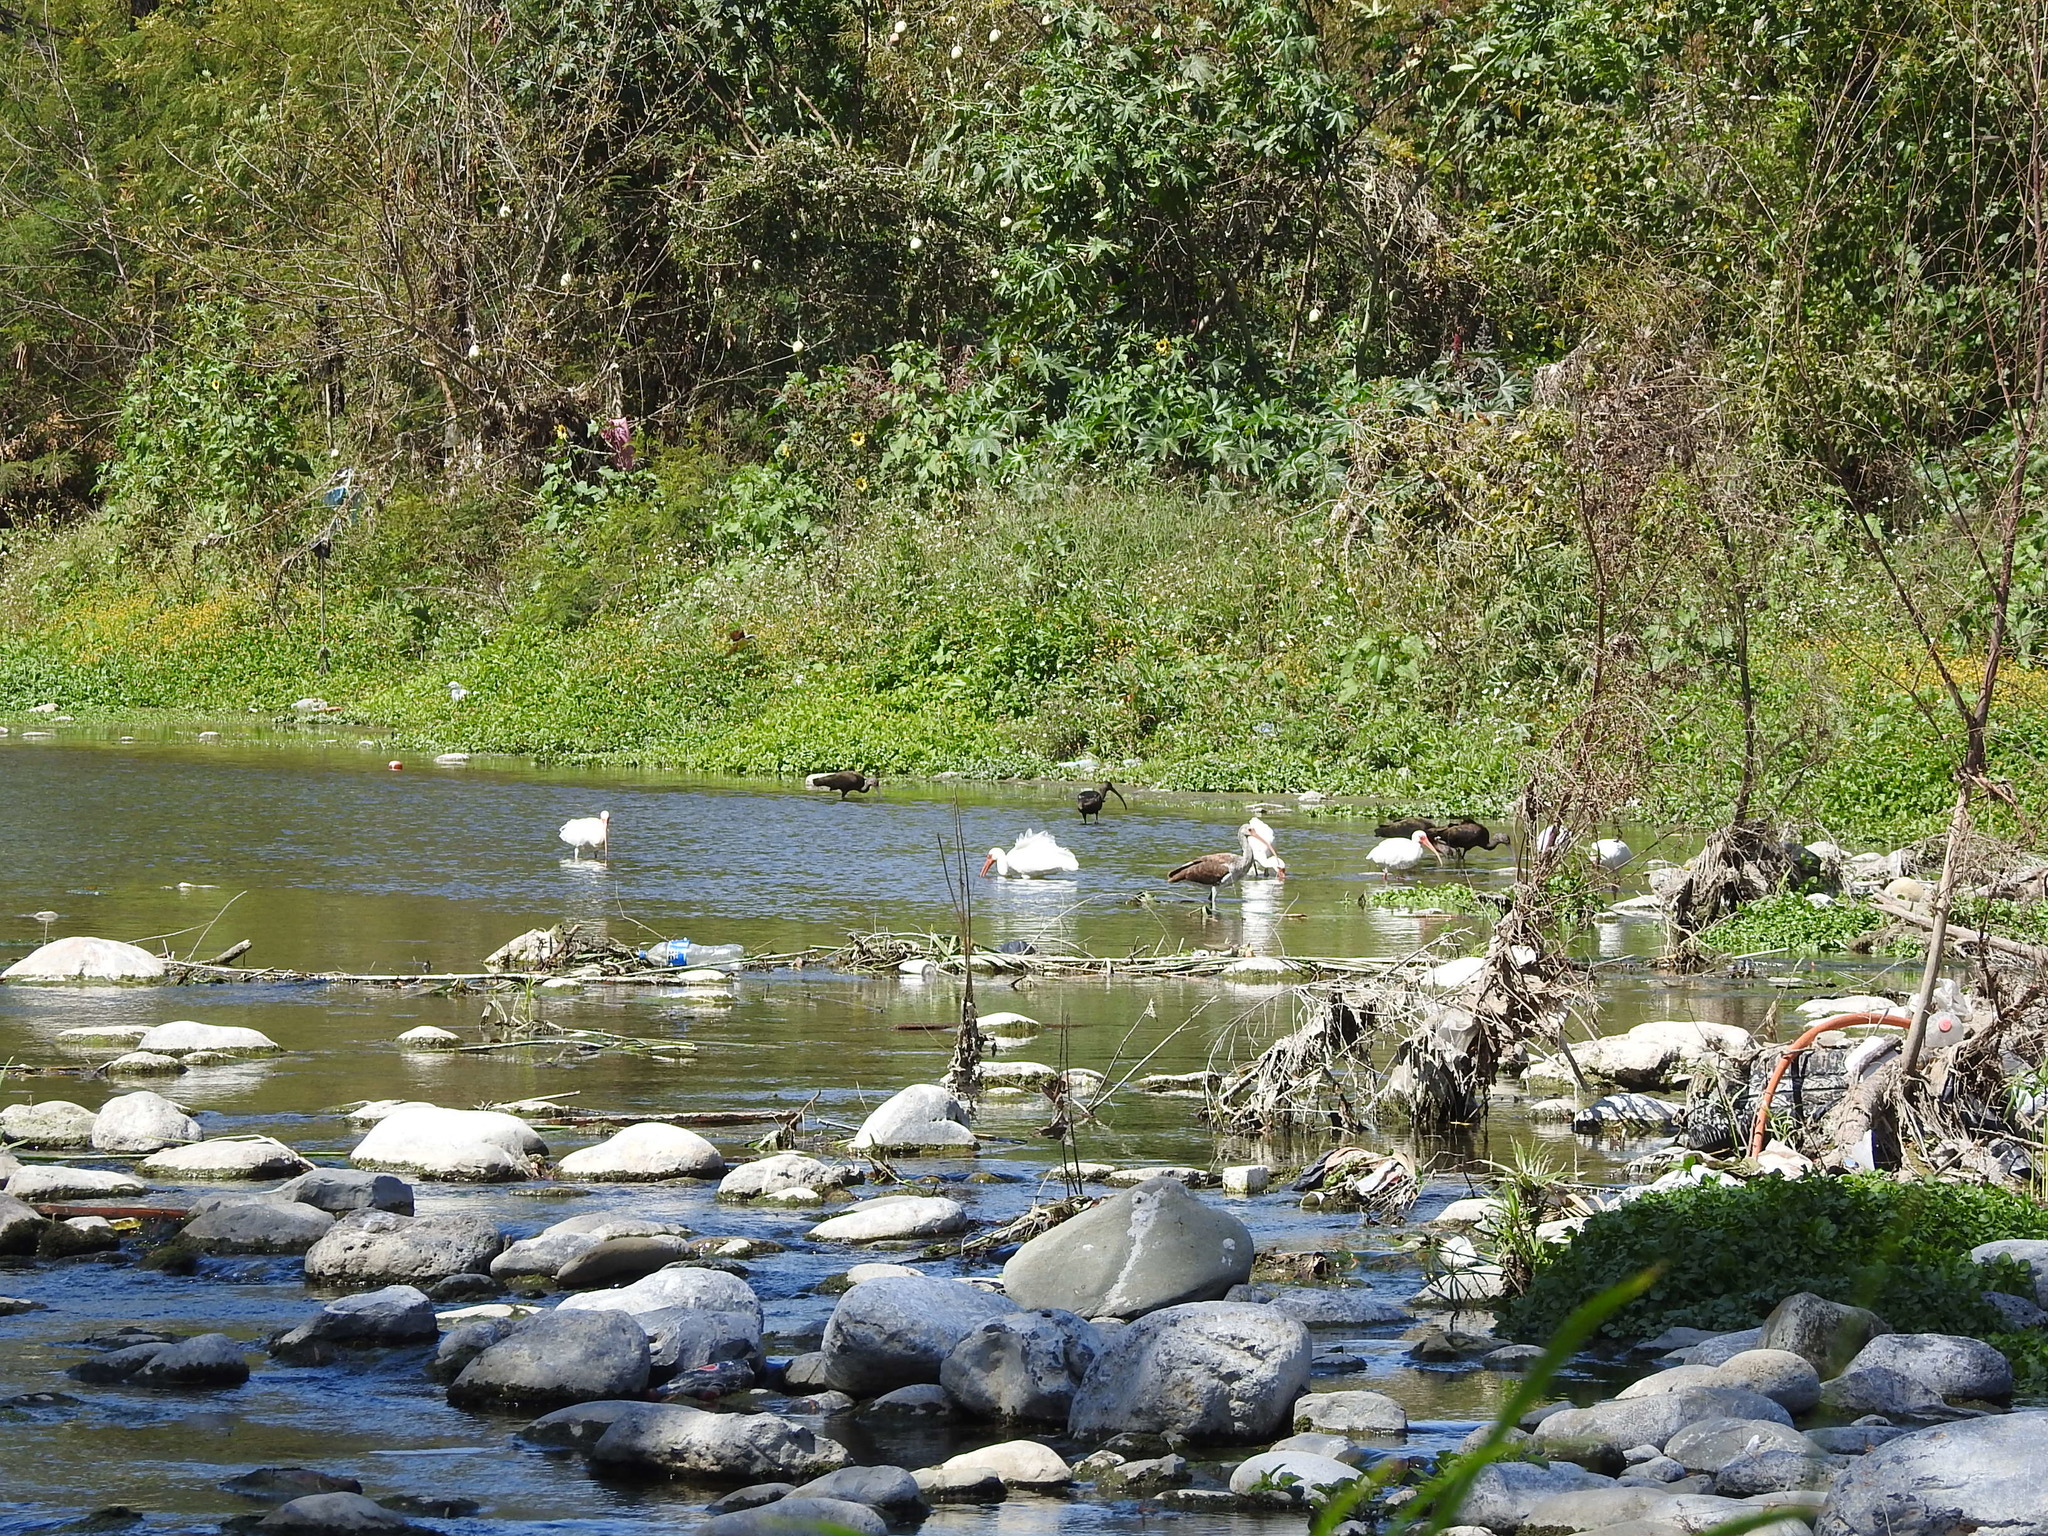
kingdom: Animalia
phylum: Chordata
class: Aves
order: Pelecaniformes
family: Threskiornithidae
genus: Eudocimus
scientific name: Eudocimus albus
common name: White ibis
